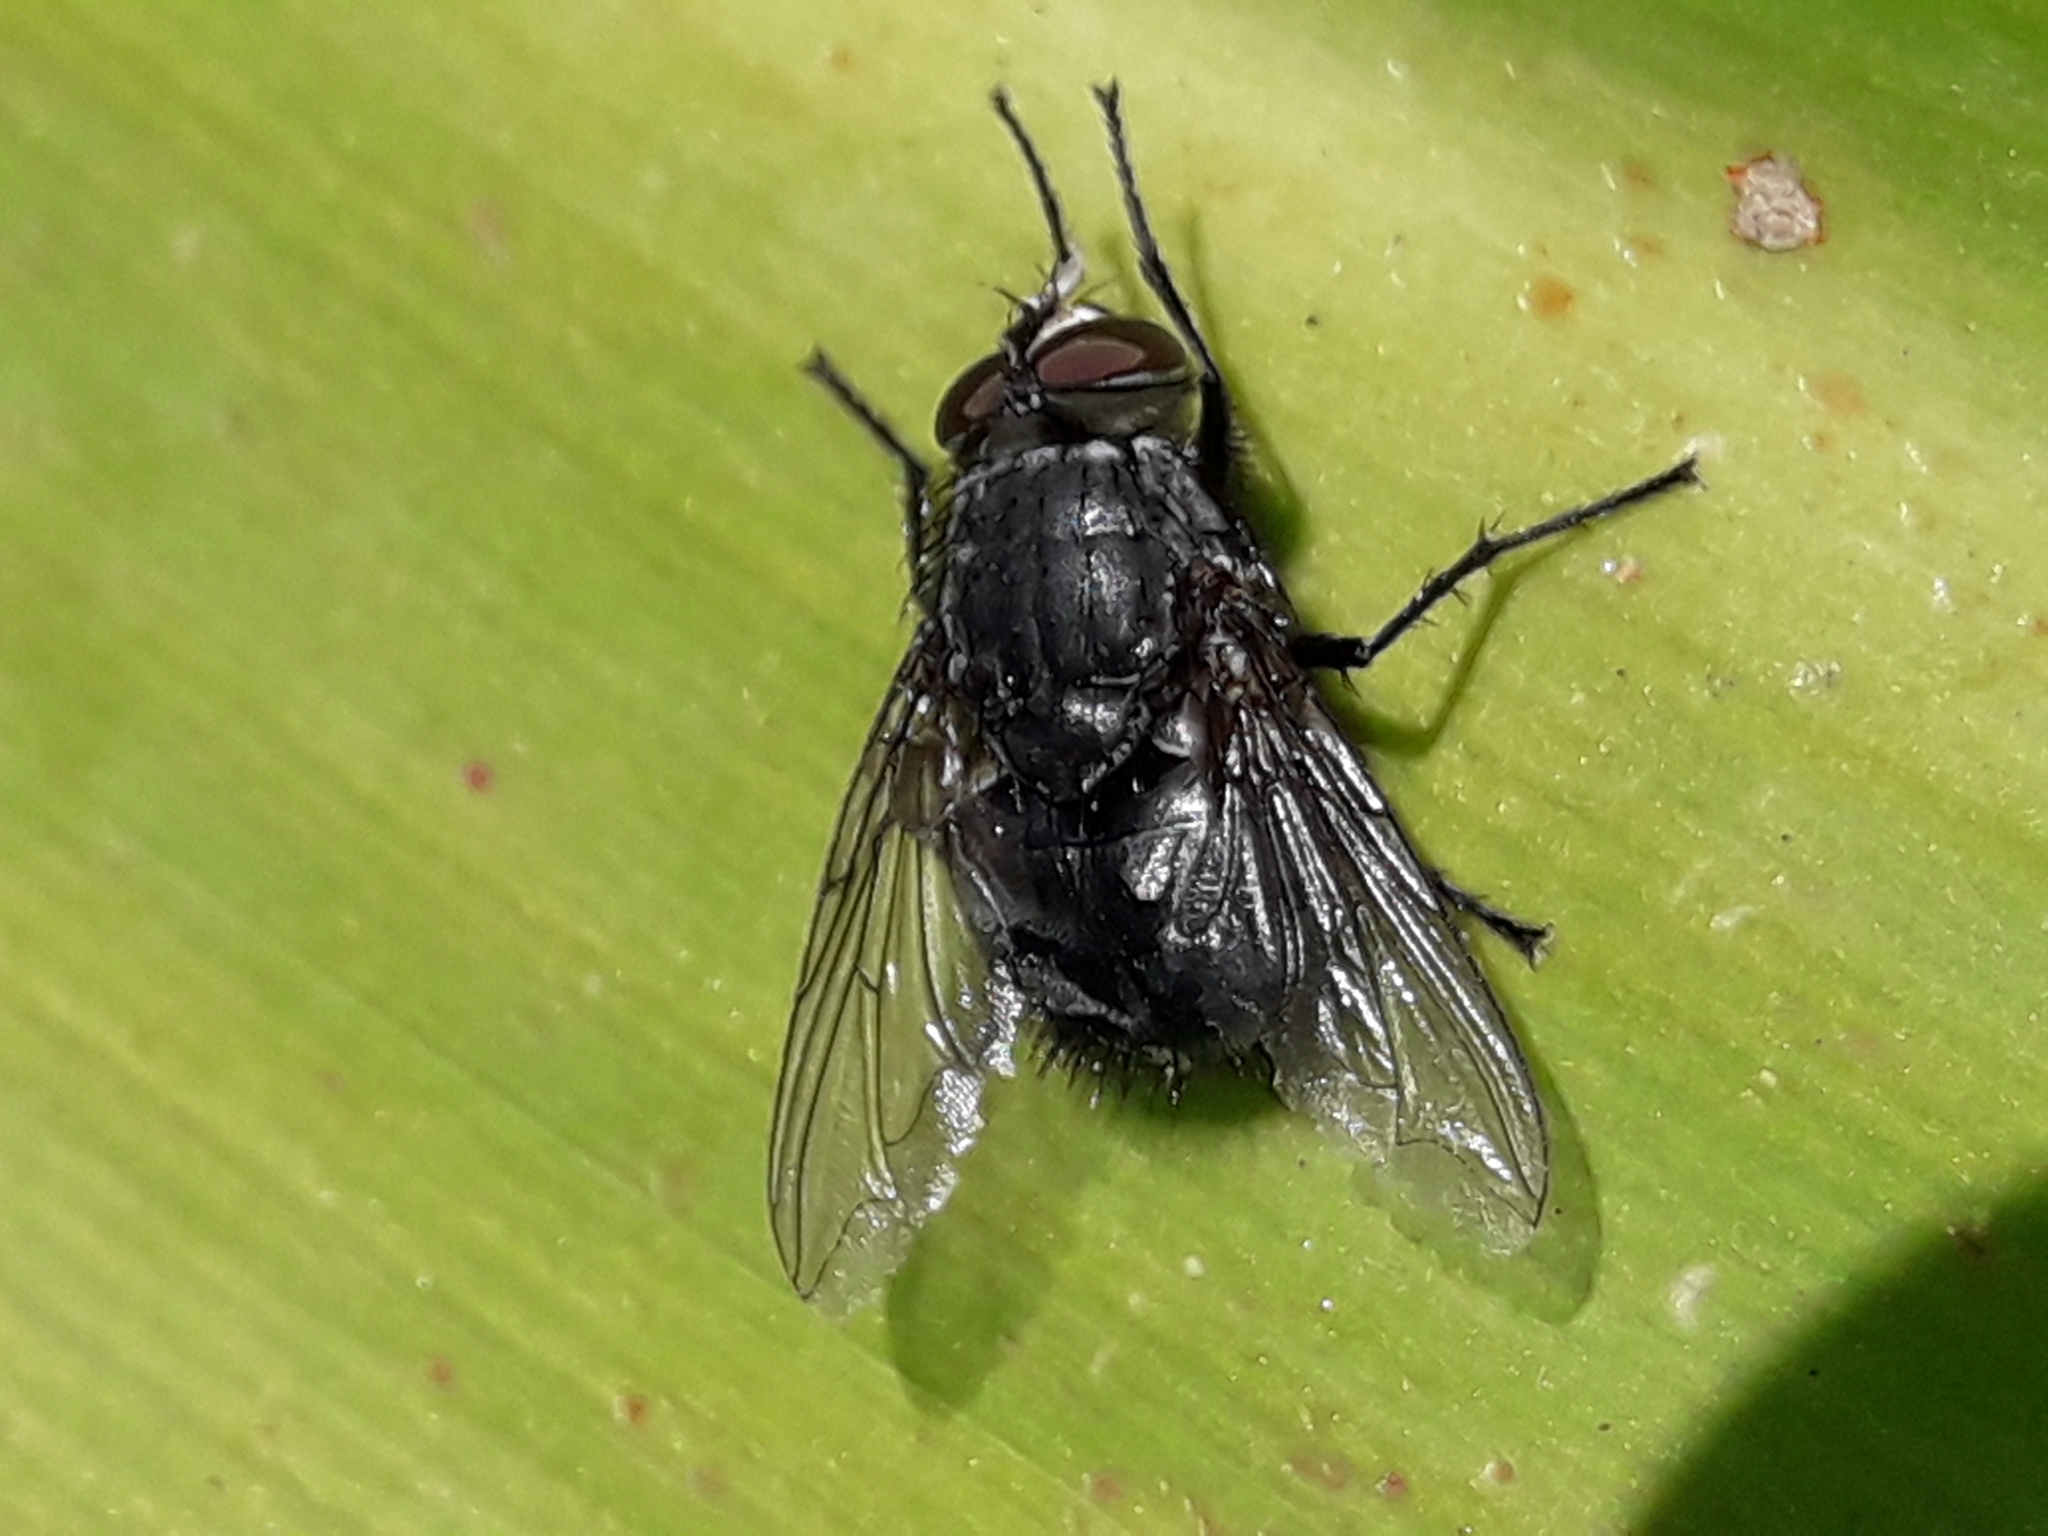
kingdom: Animalia
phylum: Arthropoda
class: Insecta
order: Diptera
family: Calliphoridae
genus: Calliphora
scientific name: Calliphora vicina
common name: Common blow flie
